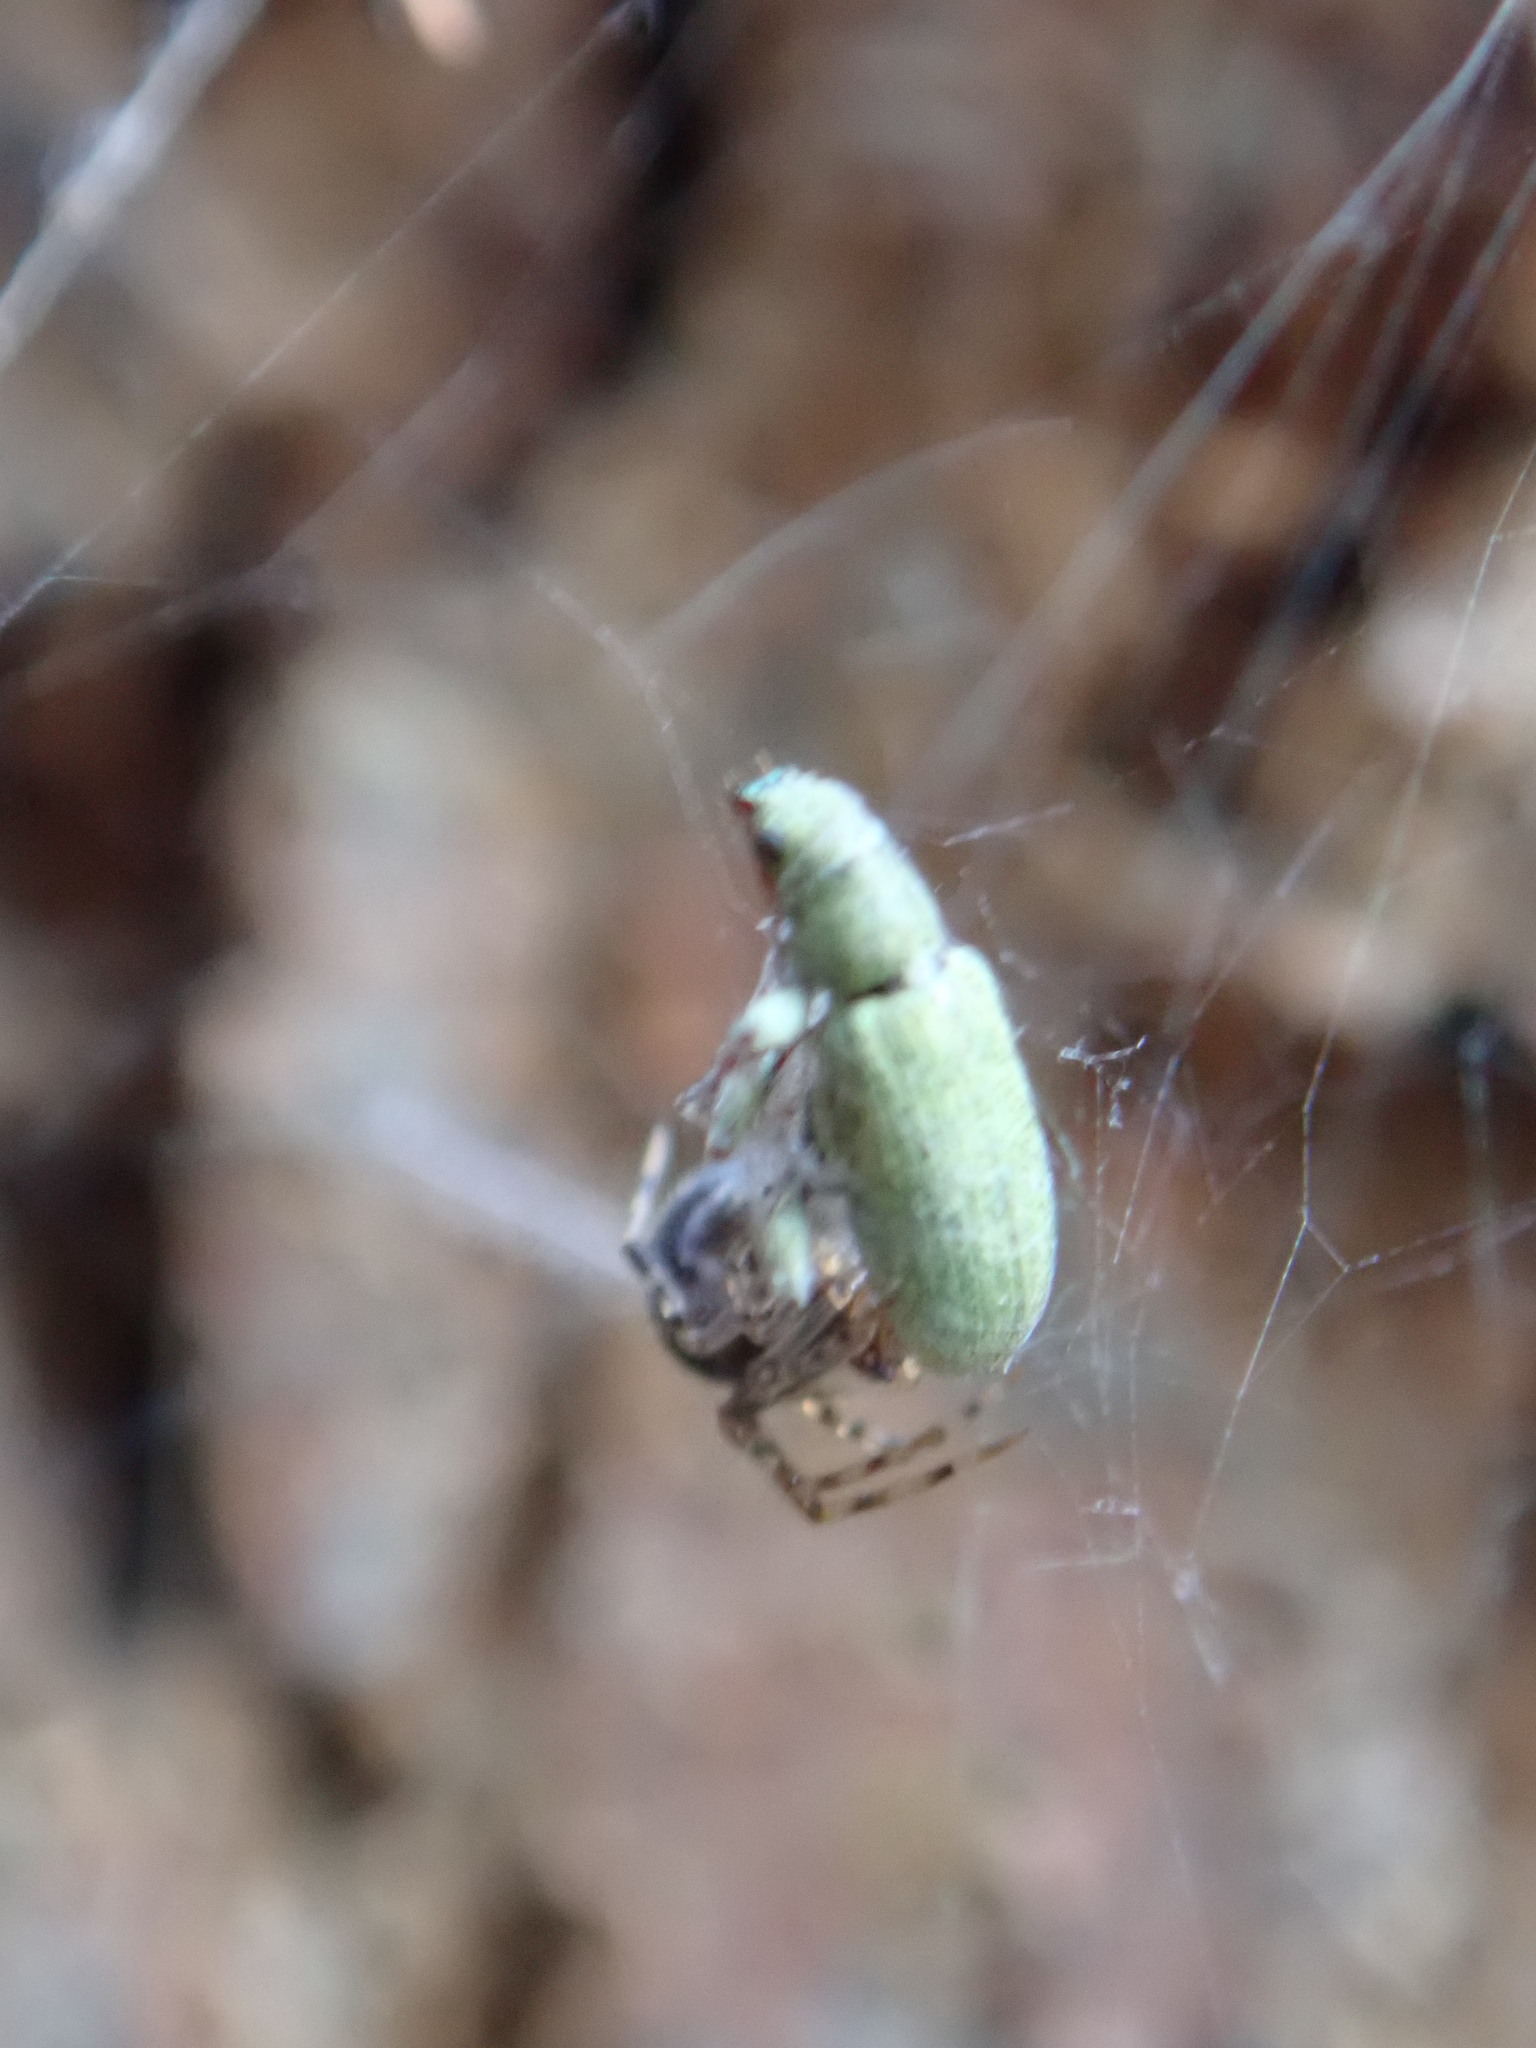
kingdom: Animalia
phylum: Arthropoda
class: Insecta
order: Coleoptera
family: Curculionidae
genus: Pachyrhinus
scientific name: Pachyrhinus lethierryi
